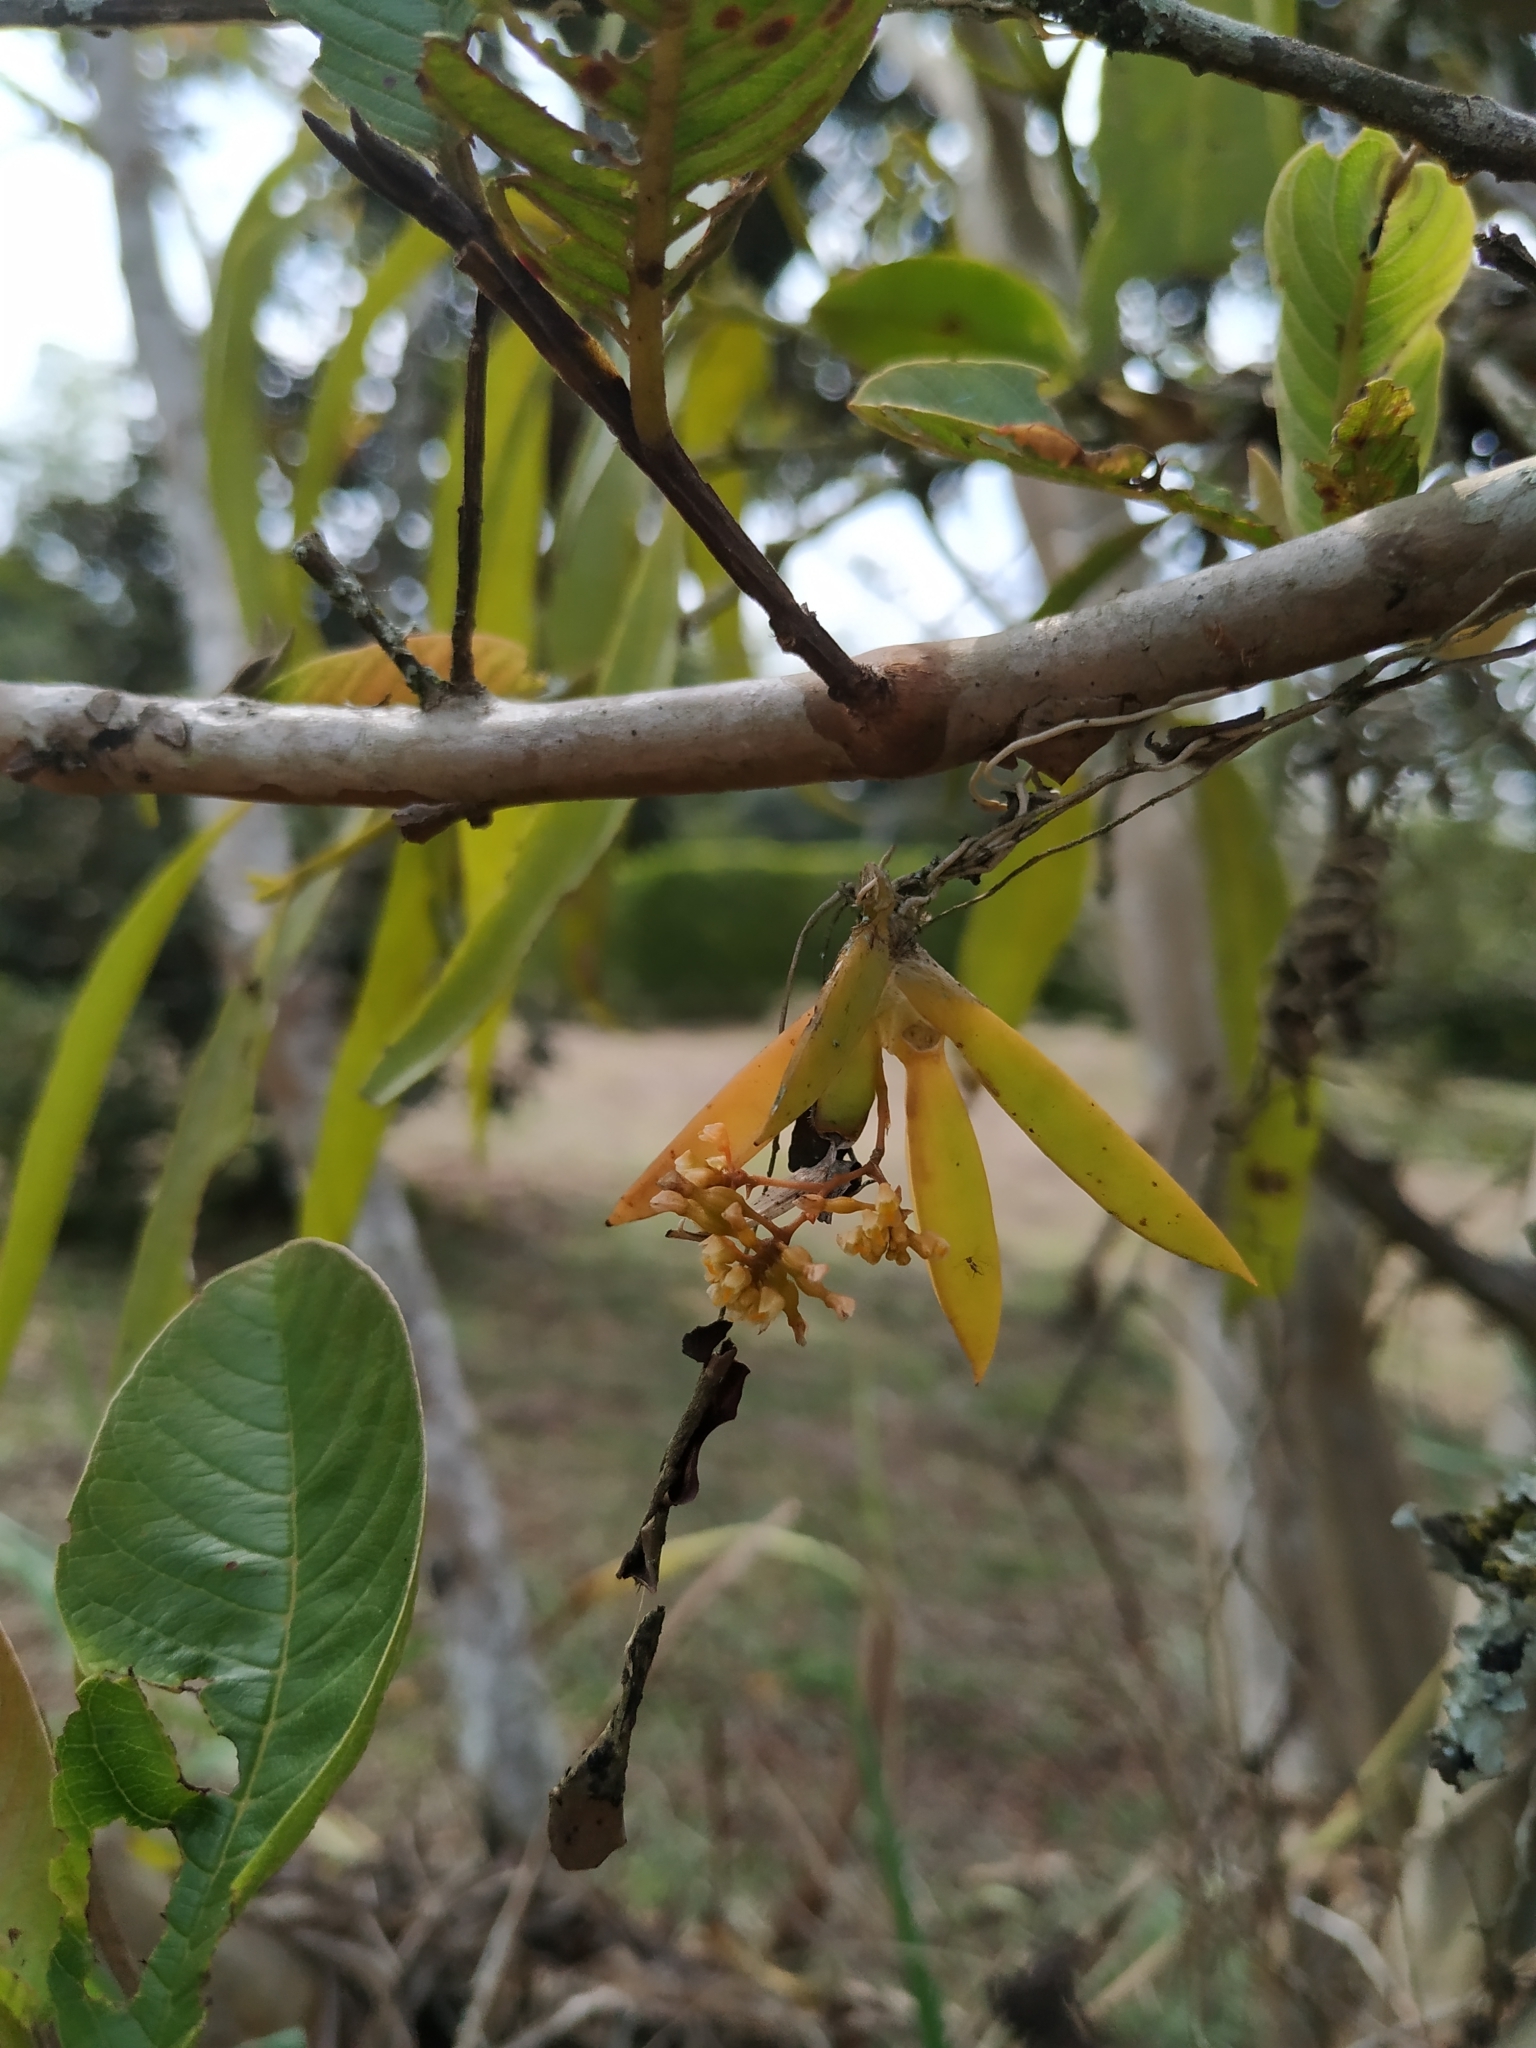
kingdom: Plantae
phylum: Tracheophyta
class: Liliopsida
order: Asparagales
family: Orchidaceae
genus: Trizeuxis
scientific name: Trizeuxis falcata
